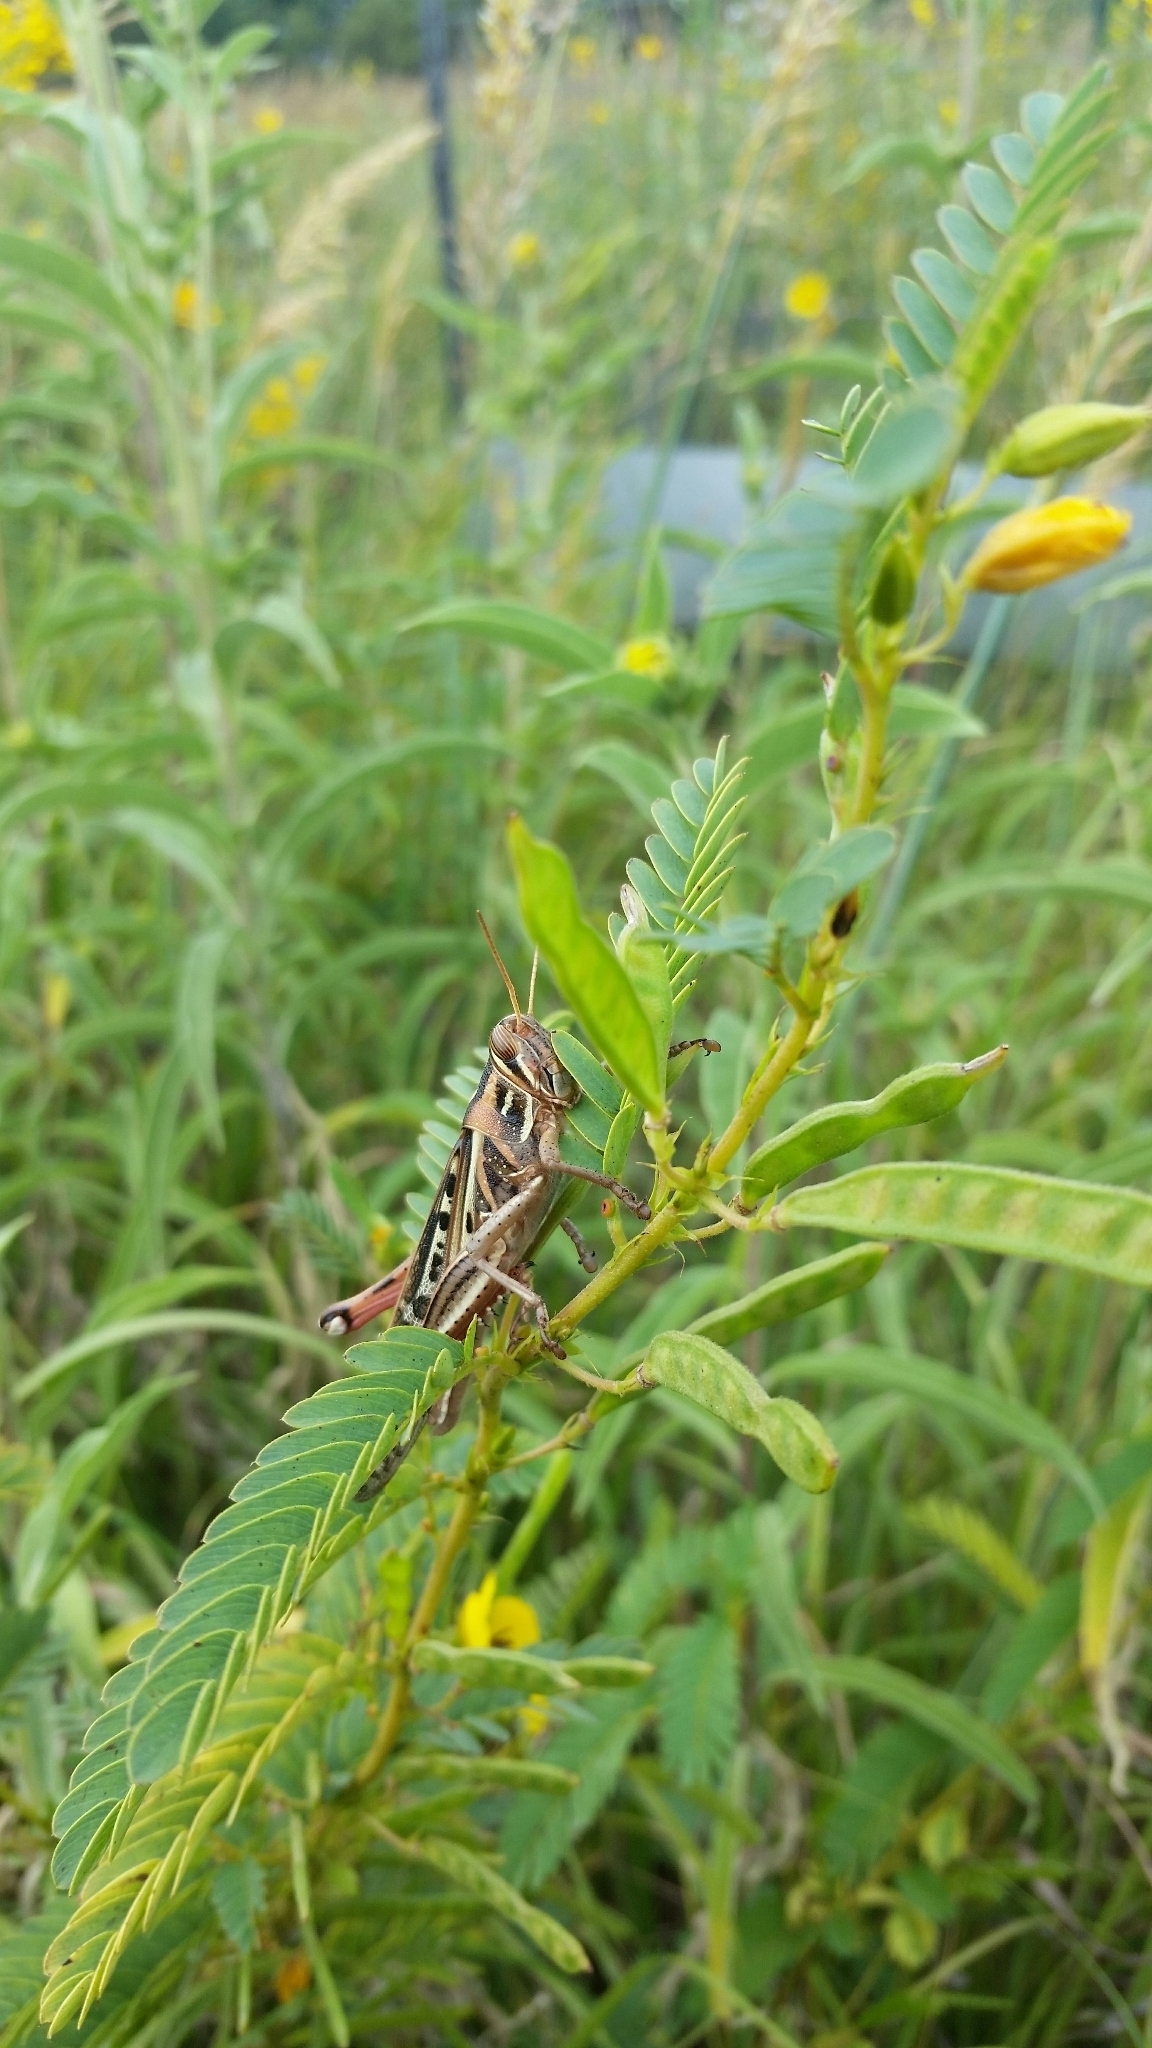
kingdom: Animalia
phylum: Arthropoda
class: Insecta
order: Orthoptera
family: Acrididae
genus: Schistocerca
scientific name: Schistocerca americana
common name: American bird locust
